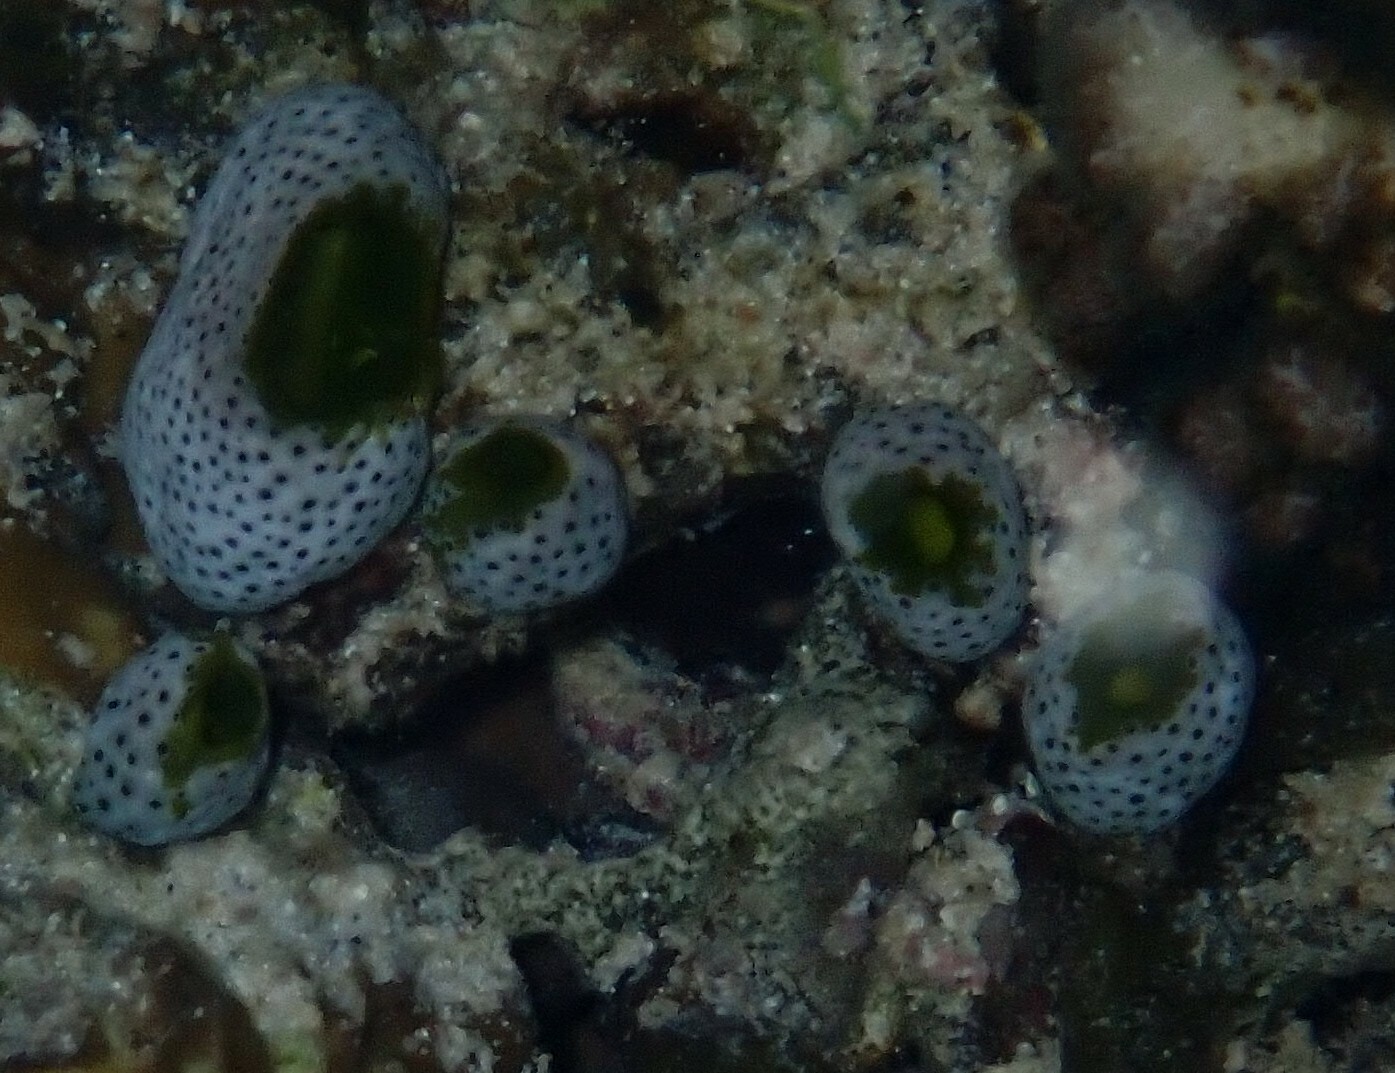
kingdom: Animalia
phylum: Chordata
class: Ascidiacea
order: Aplousobranchia
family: Didemnidae
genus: Didemnum
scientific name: Didemnum molle
